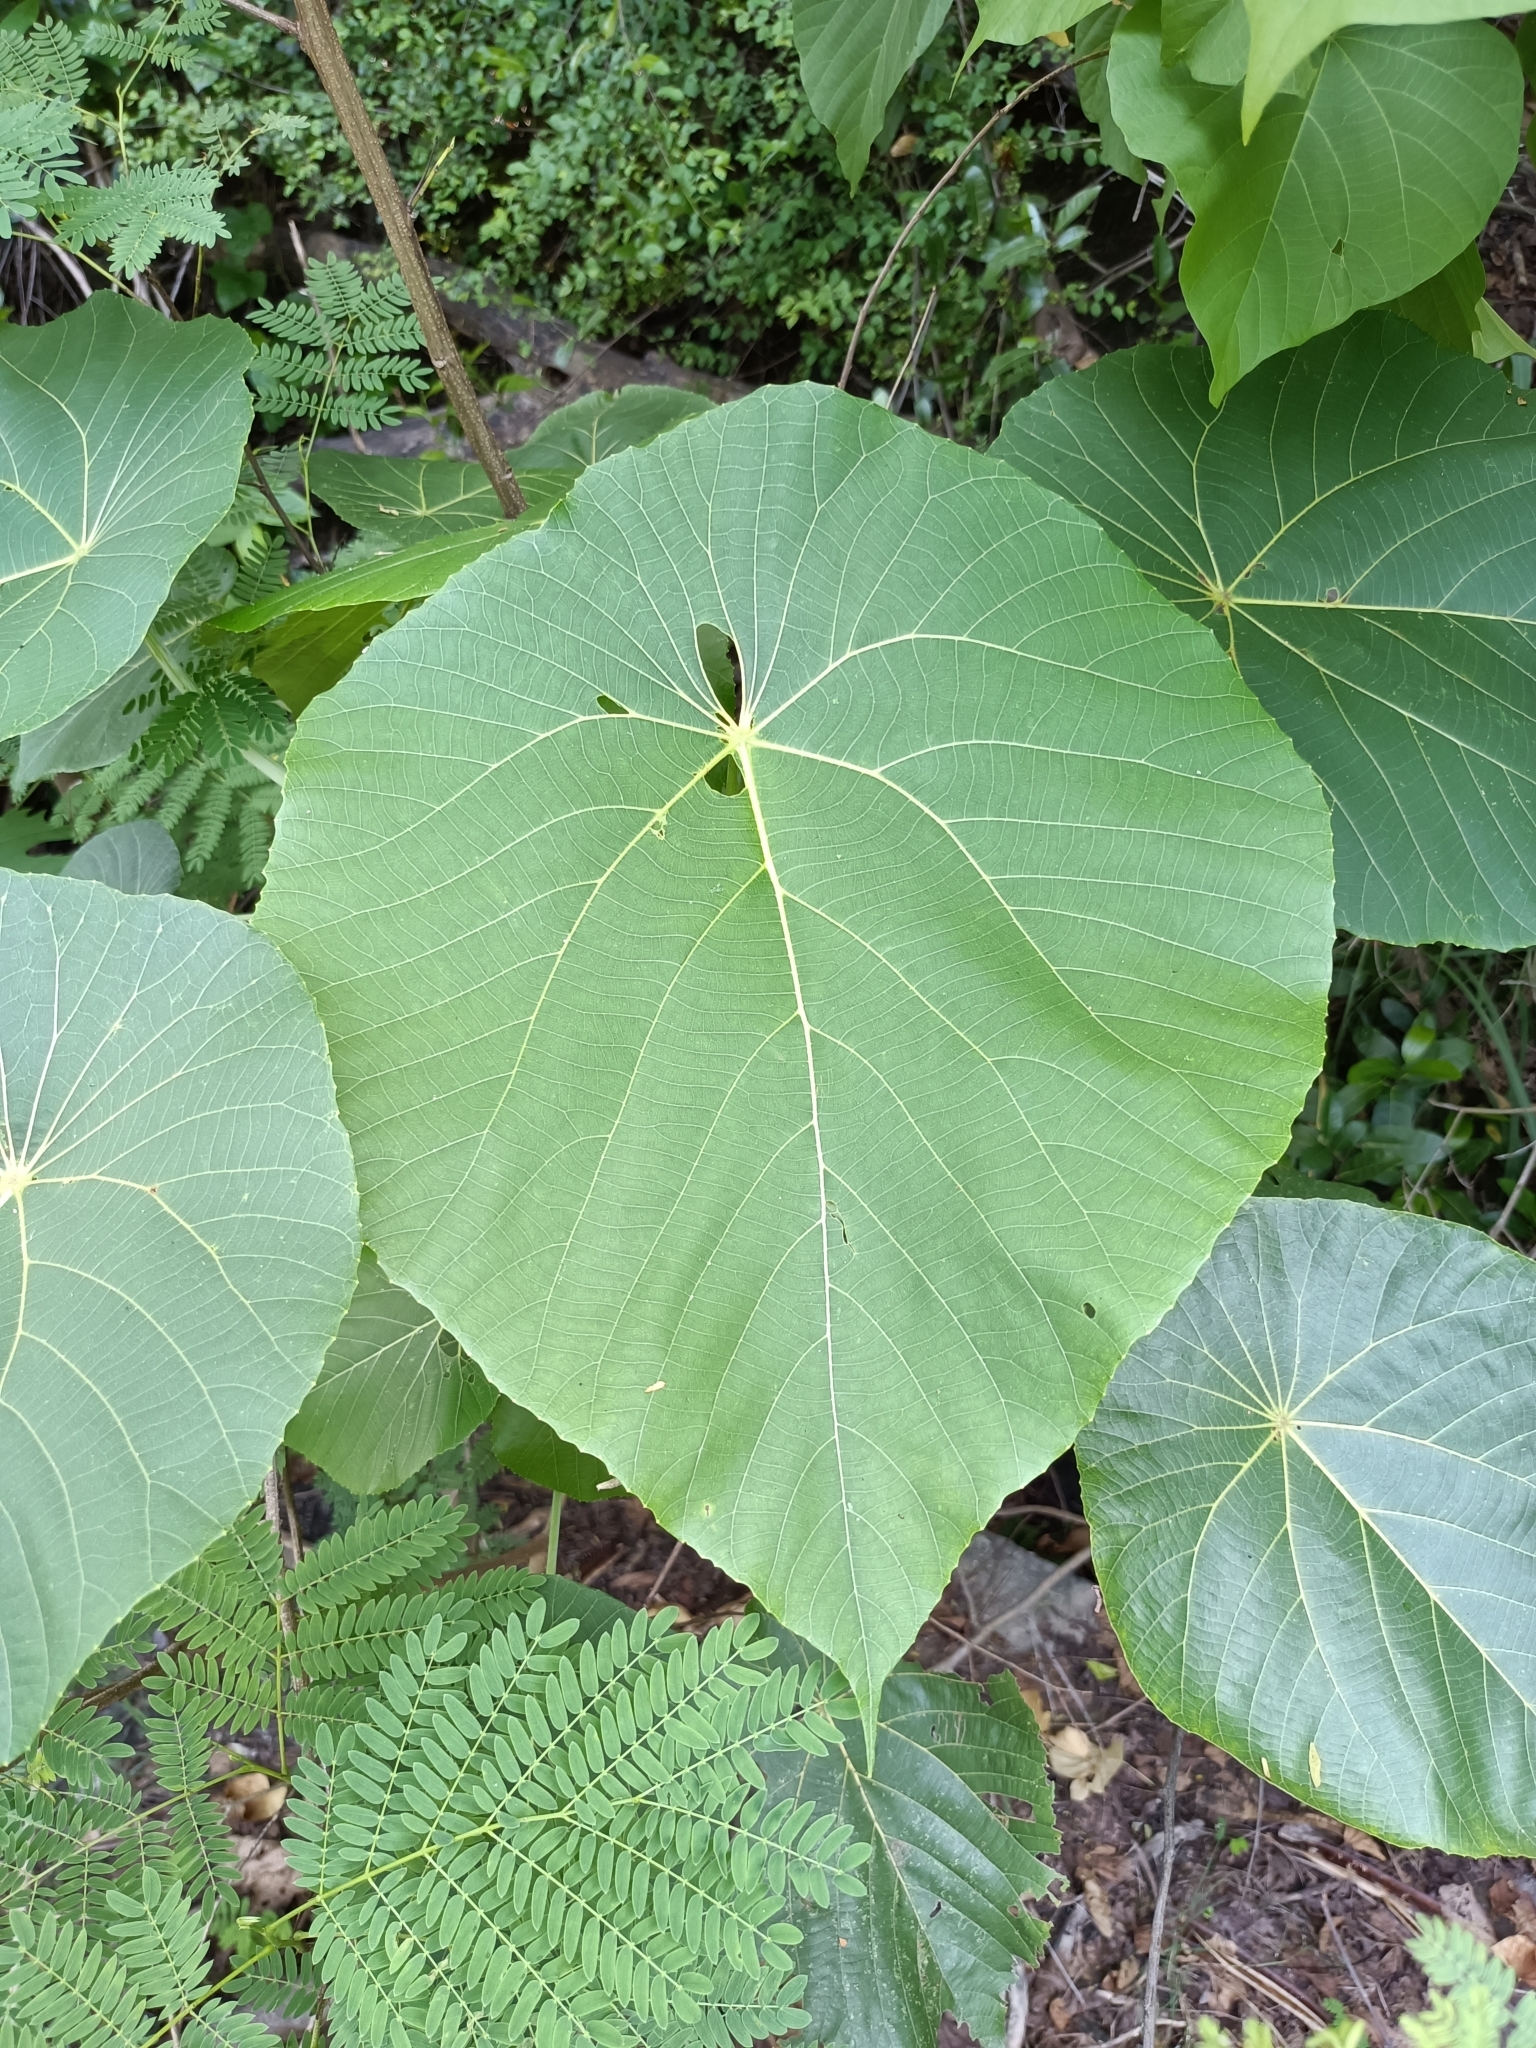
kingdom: Plantae
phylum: Tracheophyta
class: Magnoliopsida
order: Malpighiales
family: Euphorbiaceae
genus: Macaranga
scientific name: Macaranga tanarius
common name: Parasol leaf tree
